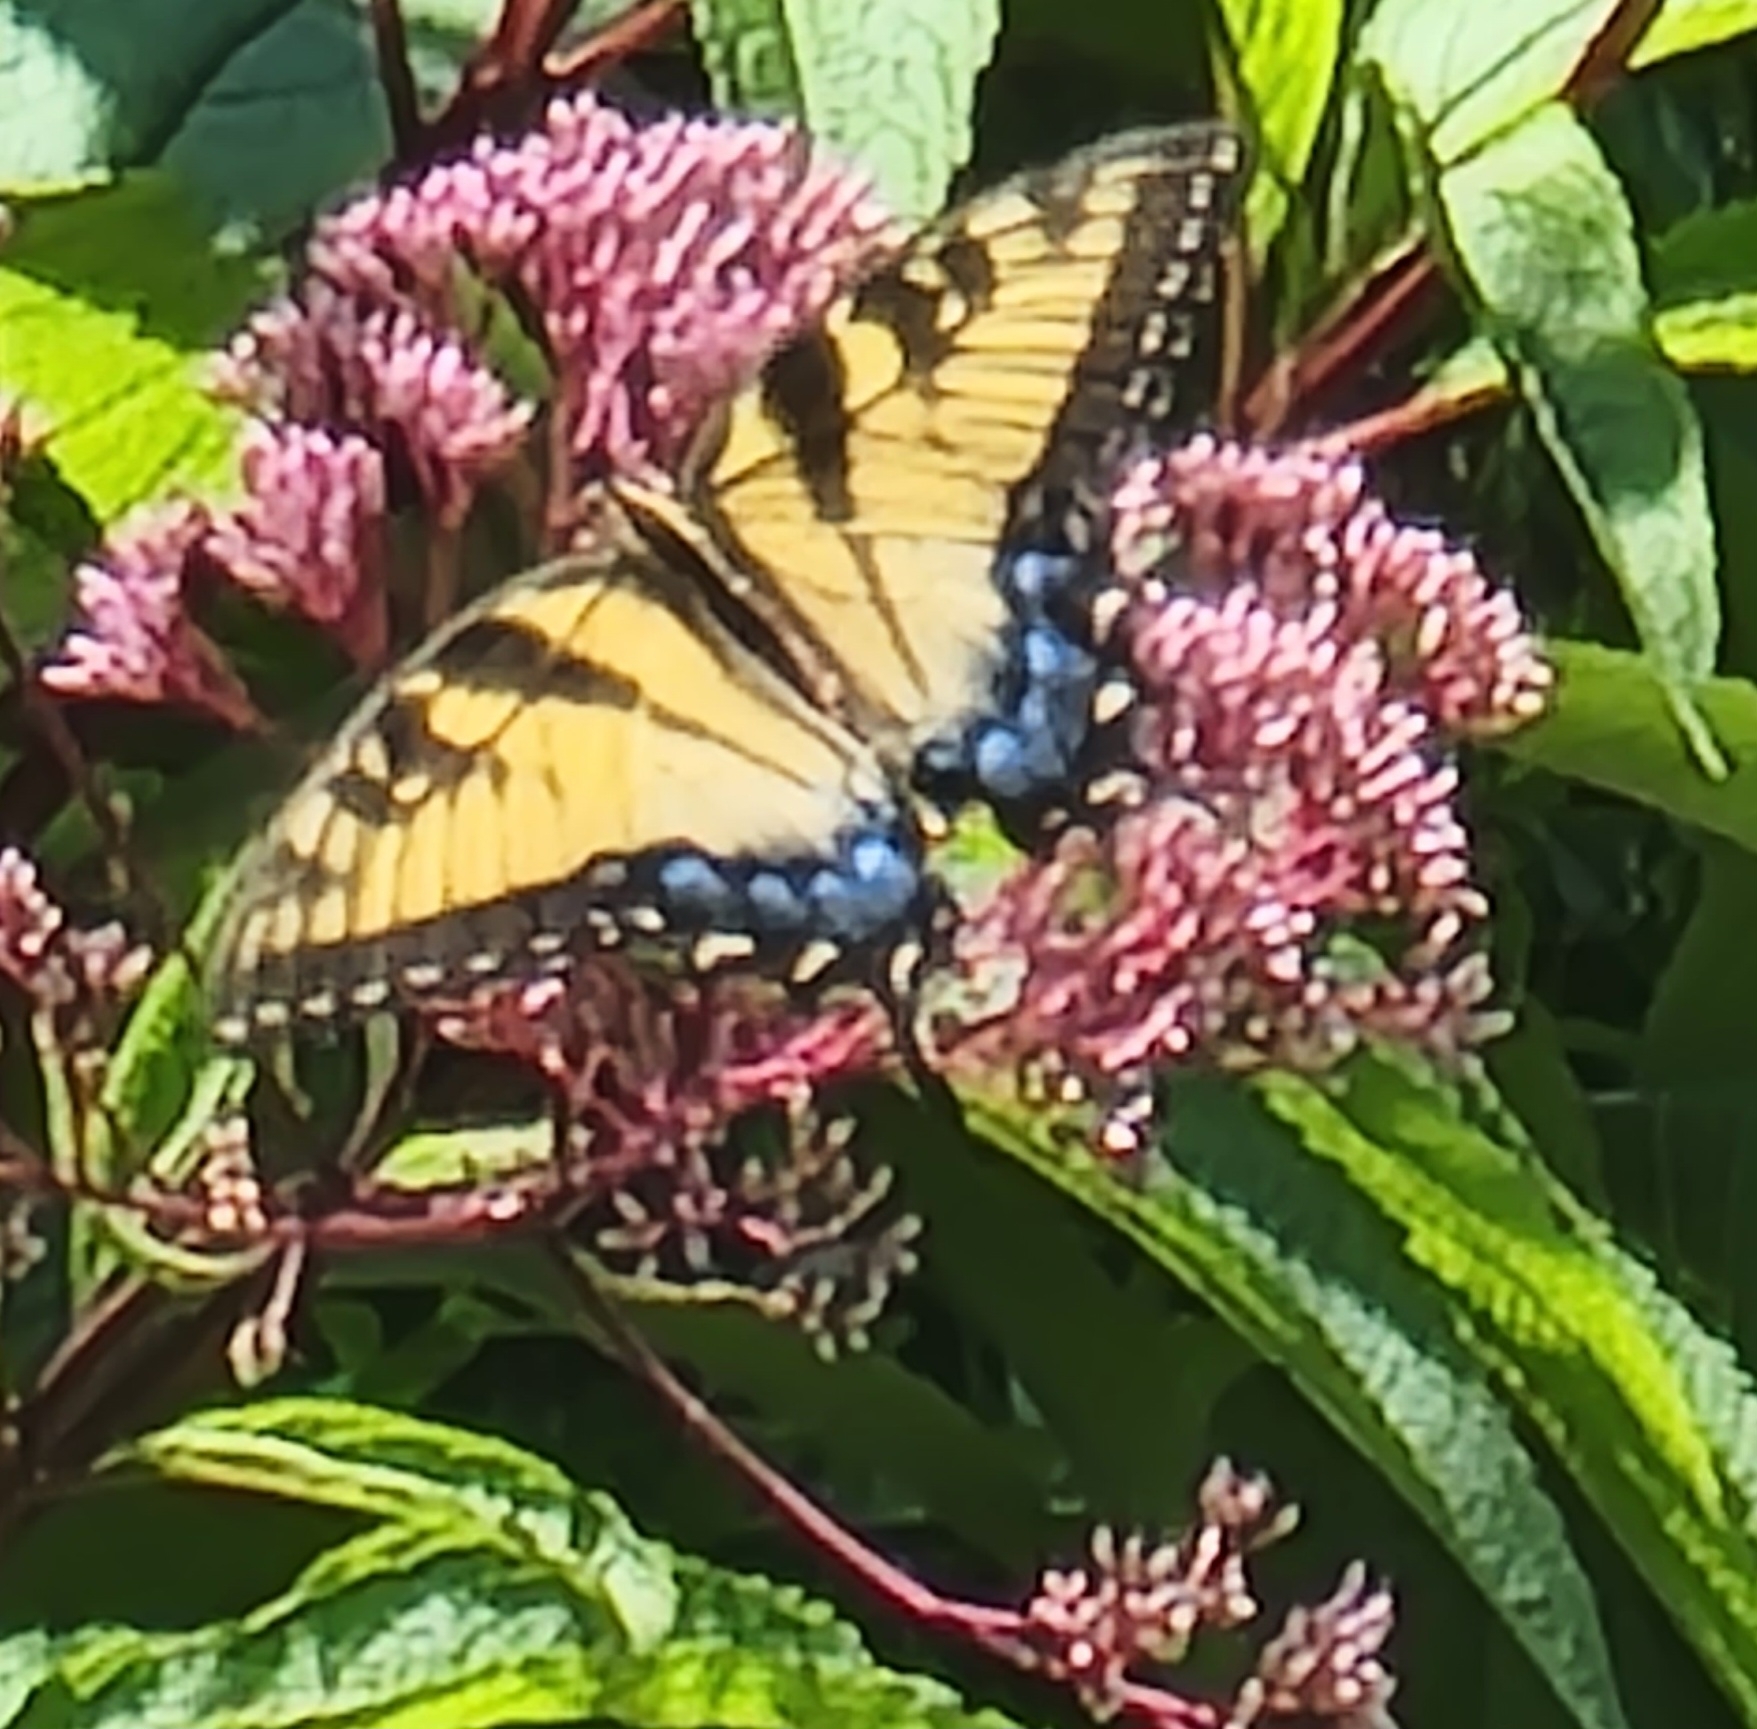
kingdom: Animalia
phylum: Arthropoda
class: Insecta
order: Lepidoptera
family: Papilionidae
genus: Papilio
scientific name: Papilio glaucus
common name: Tiger swallowtail
